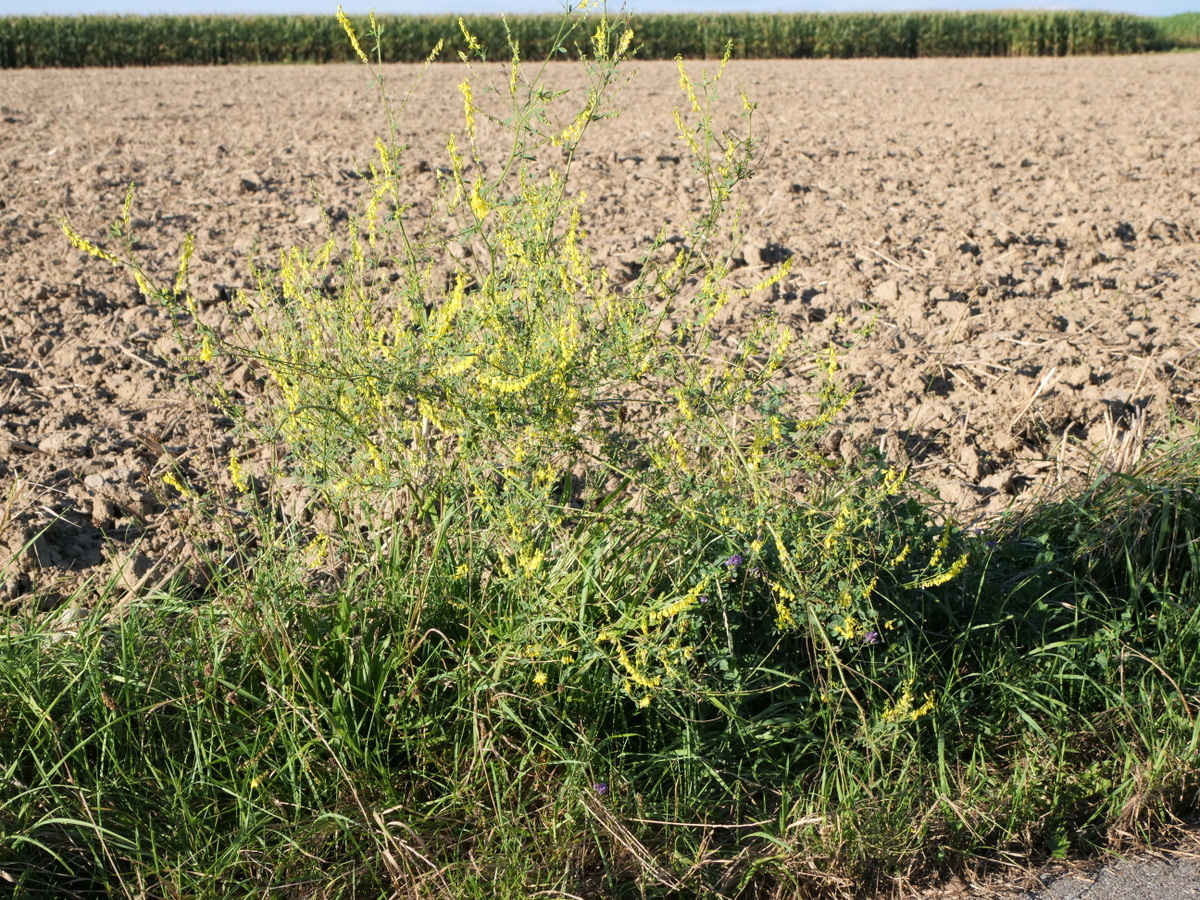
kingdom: Plantae
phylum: Tracheophyta
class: Magnoliopsida
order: Fabales
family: Fabaceae
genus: Melilotus
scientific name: Melilotus officinalis
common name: Sweetclover
